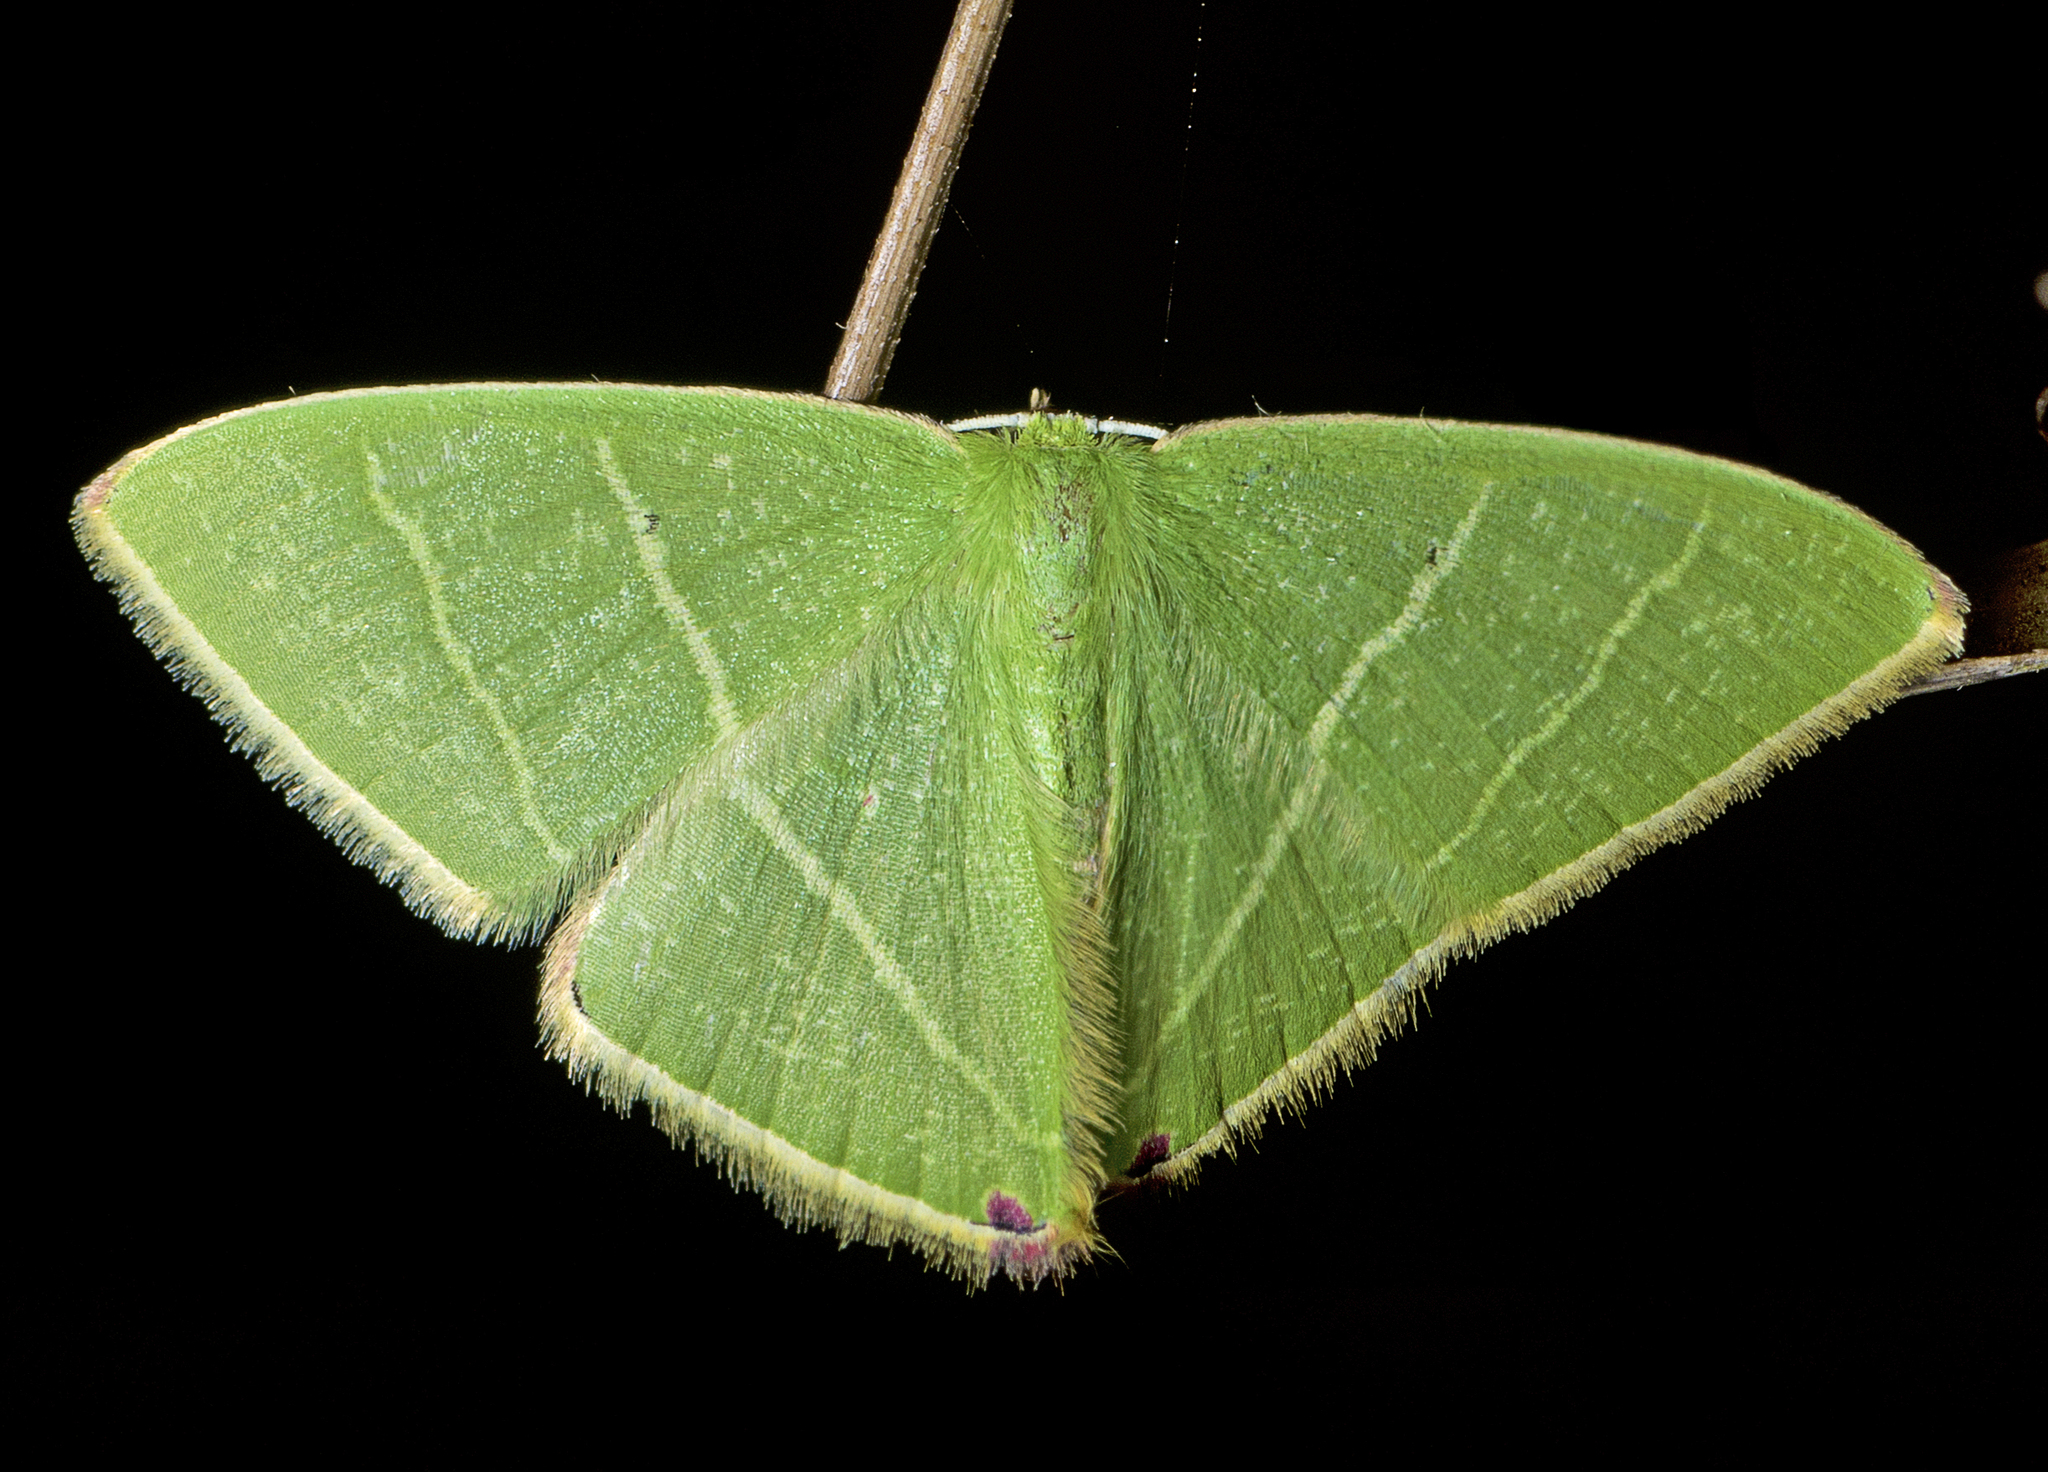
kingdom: Animalia
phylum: Arthropoda
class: Insecta
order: Lepidoptera
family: Geometridae
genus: Urolitha
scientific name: Urolitha bipunctifera
